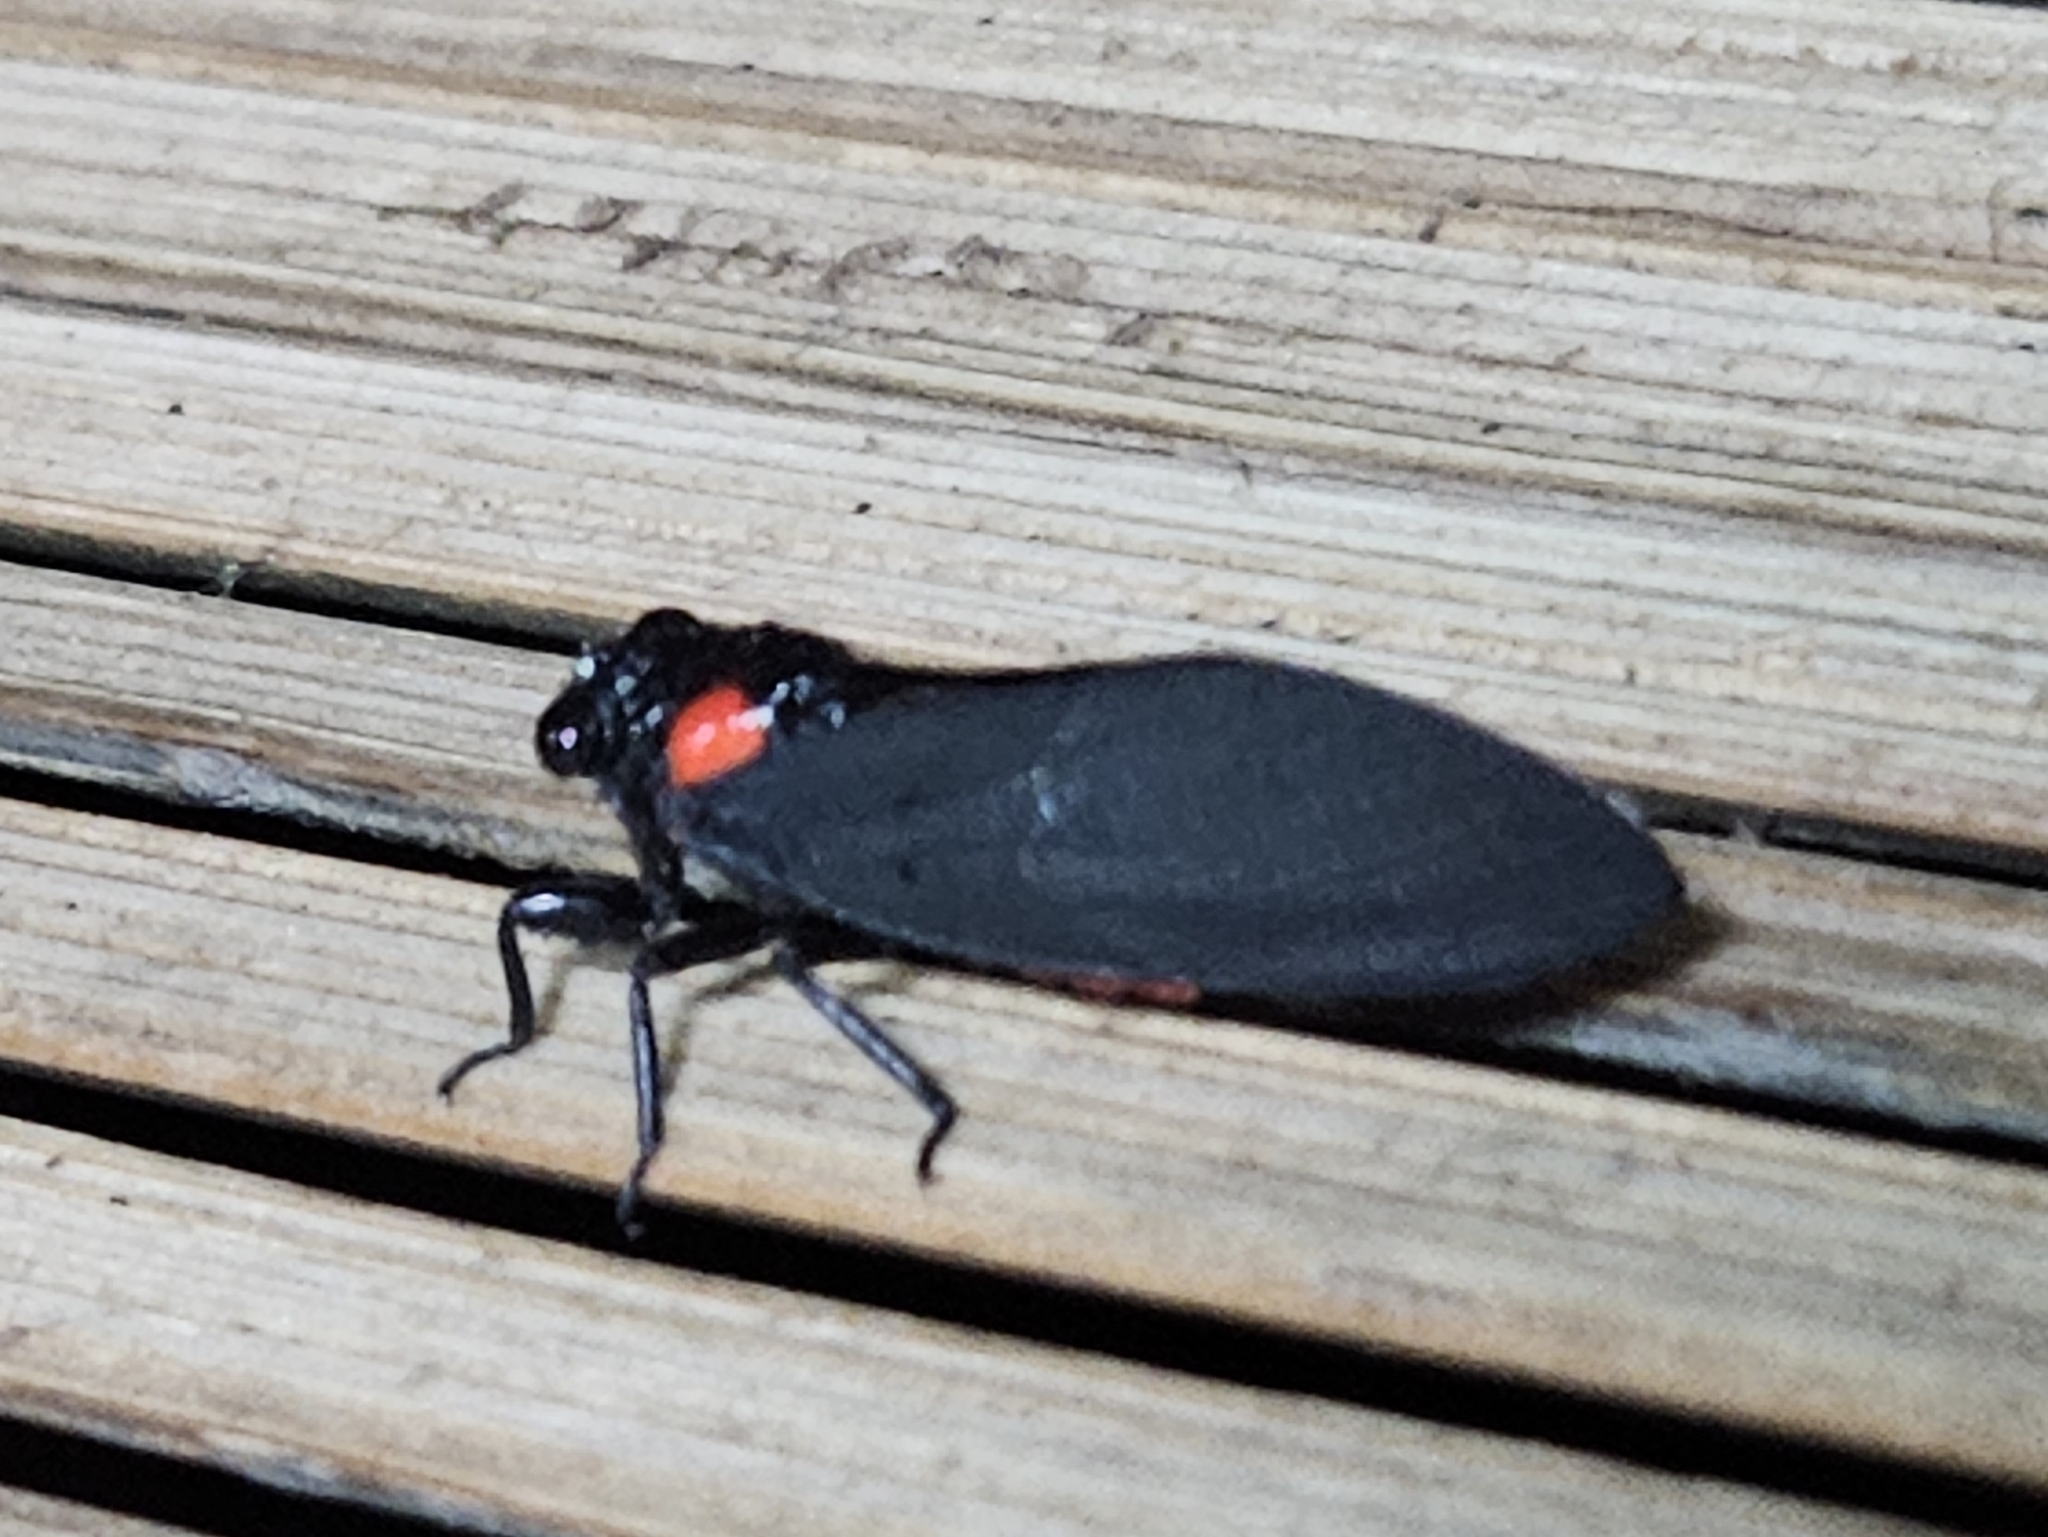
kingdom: Animalia
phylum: Arthropoda
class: Insecta
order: Hemiptera
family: Cicadidae
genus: Huechys
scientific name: Huechys sanguinea
